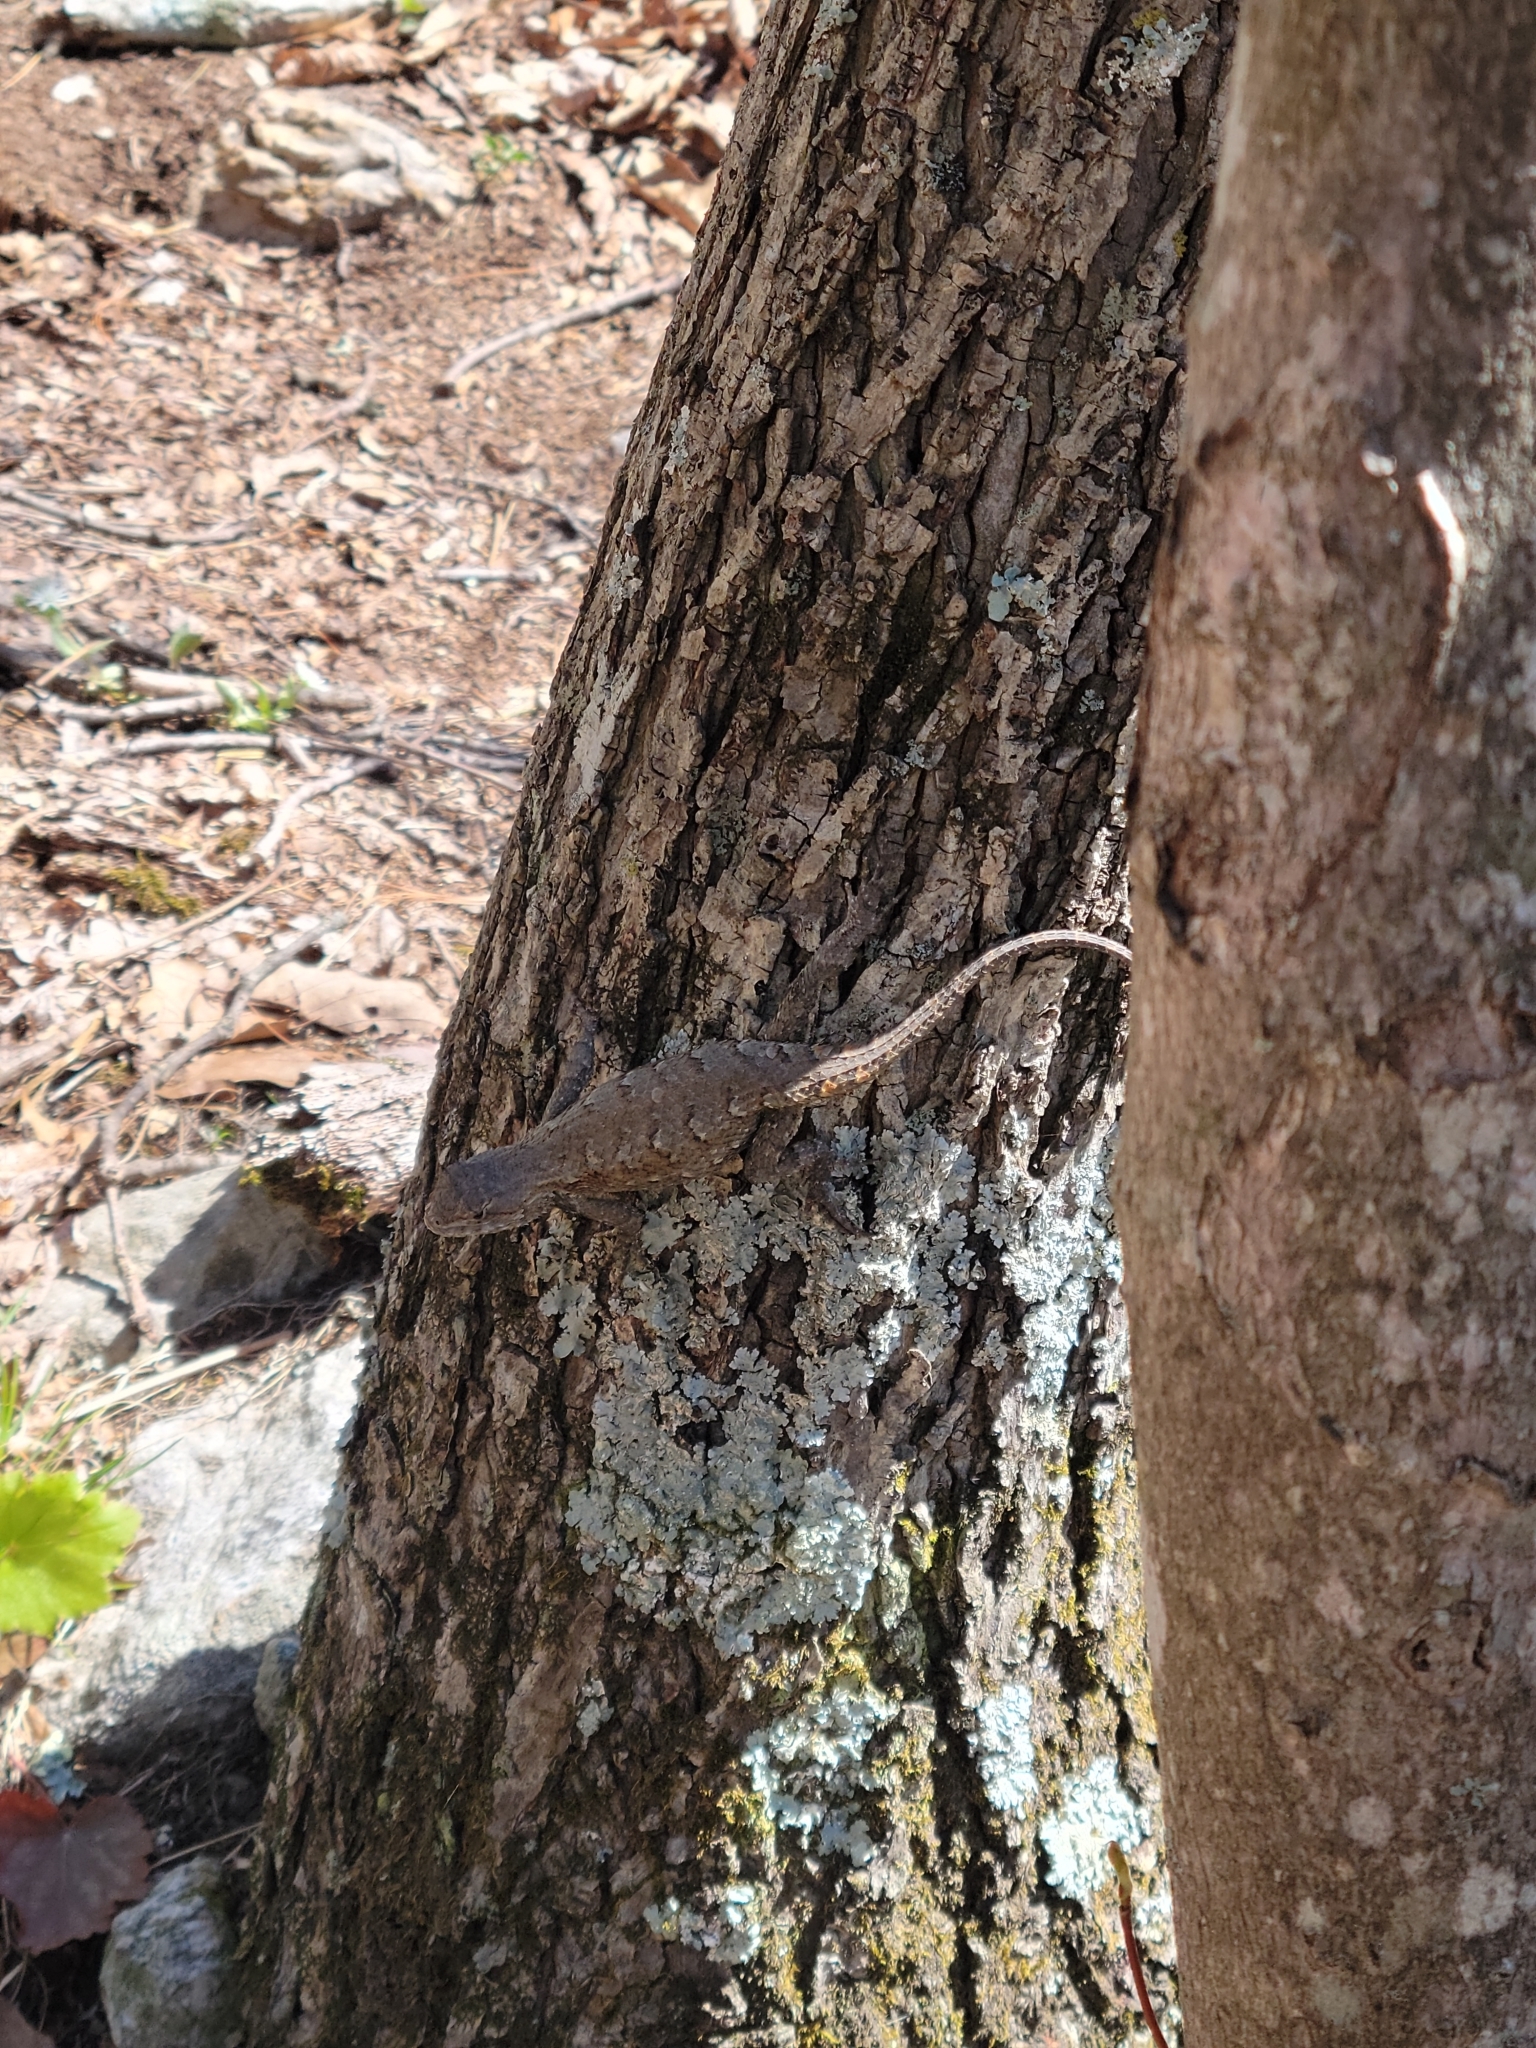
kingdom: Animalia
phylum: Chordata
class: Squamata
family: Phrynosomatidae
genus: Sceloporus
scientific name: Sceloporus undulatus
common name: Eastern fence lizard
